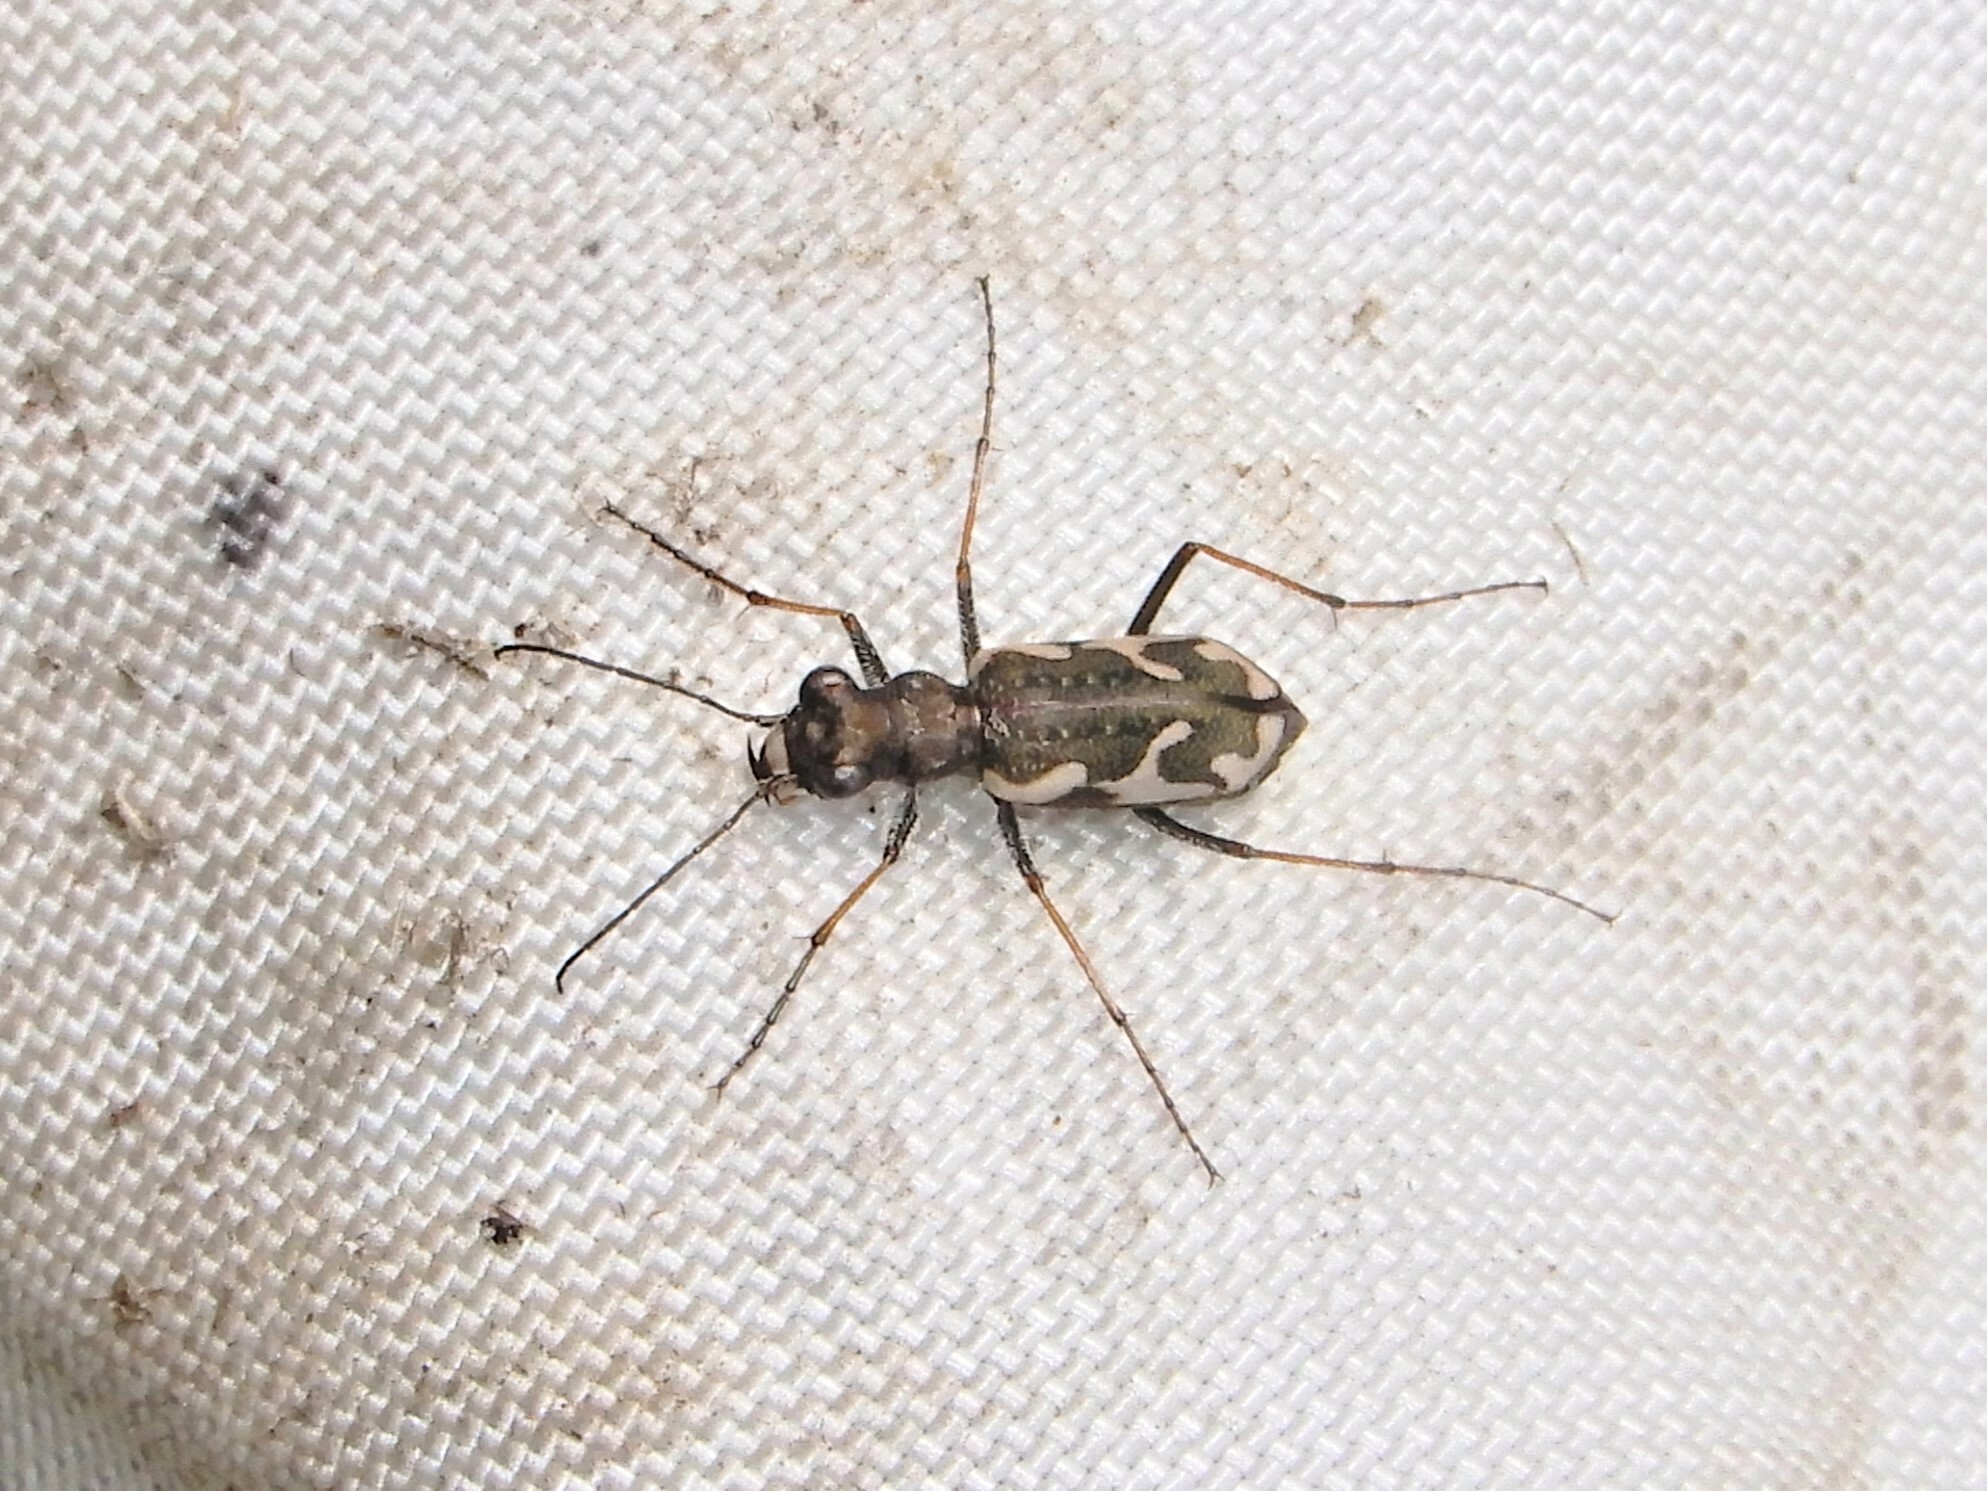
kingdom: Animalia
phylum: Arthropoda
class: Insecta
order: Coleoptera
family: Carabidae
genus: Neocicindela
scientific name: Neocicindela tuberculata
